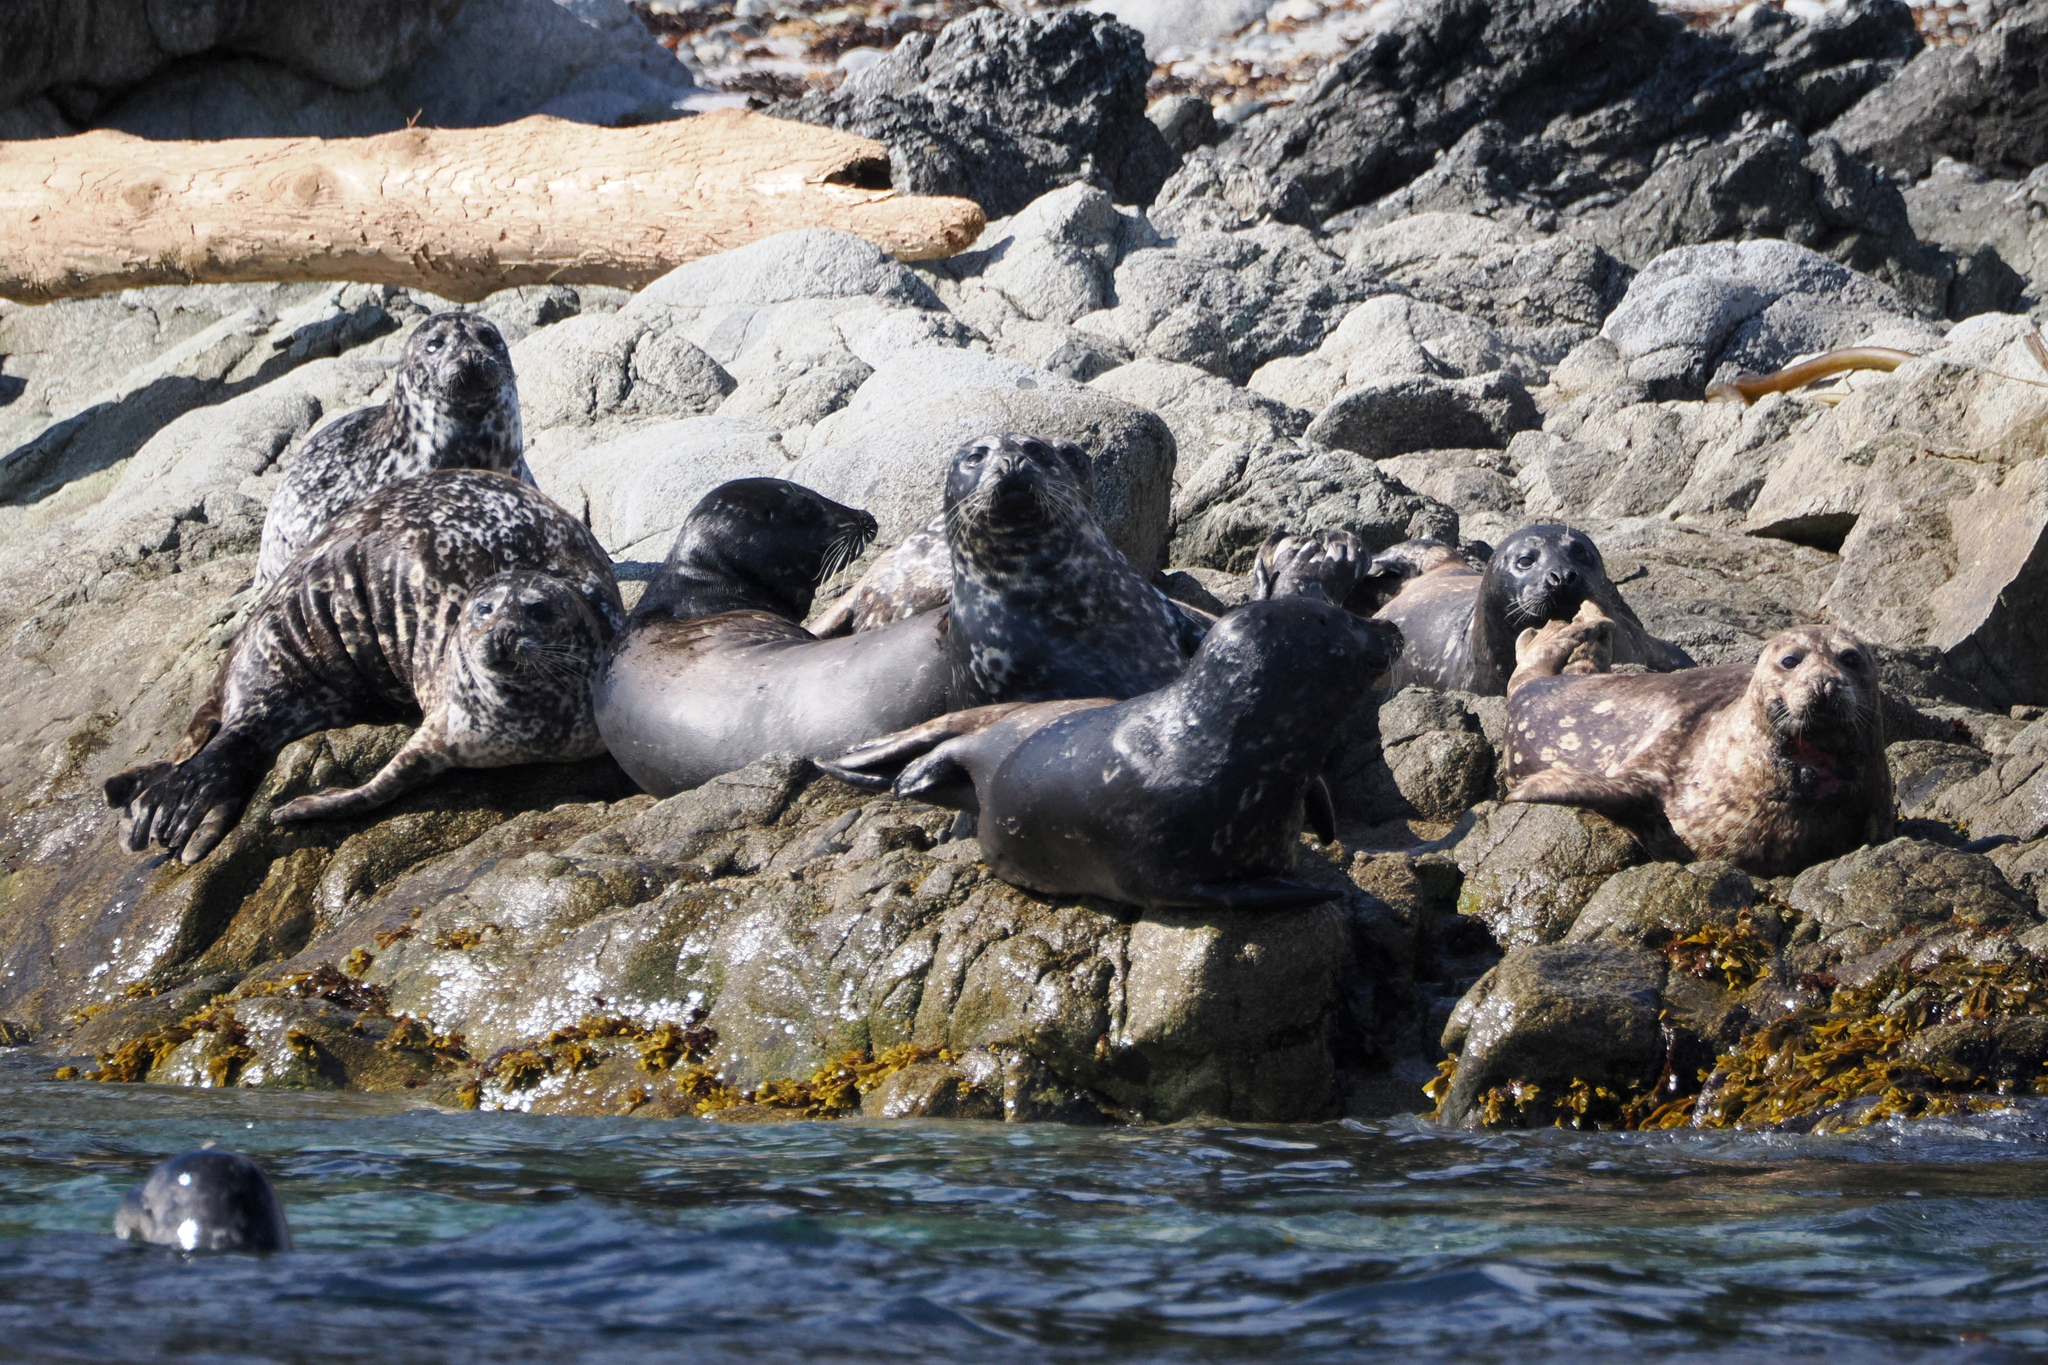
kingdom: Animalia
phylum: Chordata
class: Mammalia
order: Carnivora
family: Phocidae
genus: Phoca
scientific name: Phoca vitulina
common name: Harbor seal
